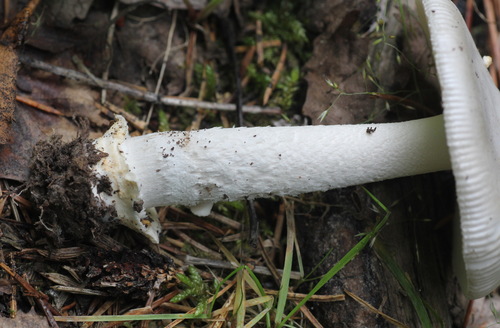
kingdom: Fungi
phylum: Basidiomycota
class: Agaricomycetes
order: Agaricales
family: Amanitaceae
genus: Amanita
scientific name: Amanita vaginata
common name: Grisette
